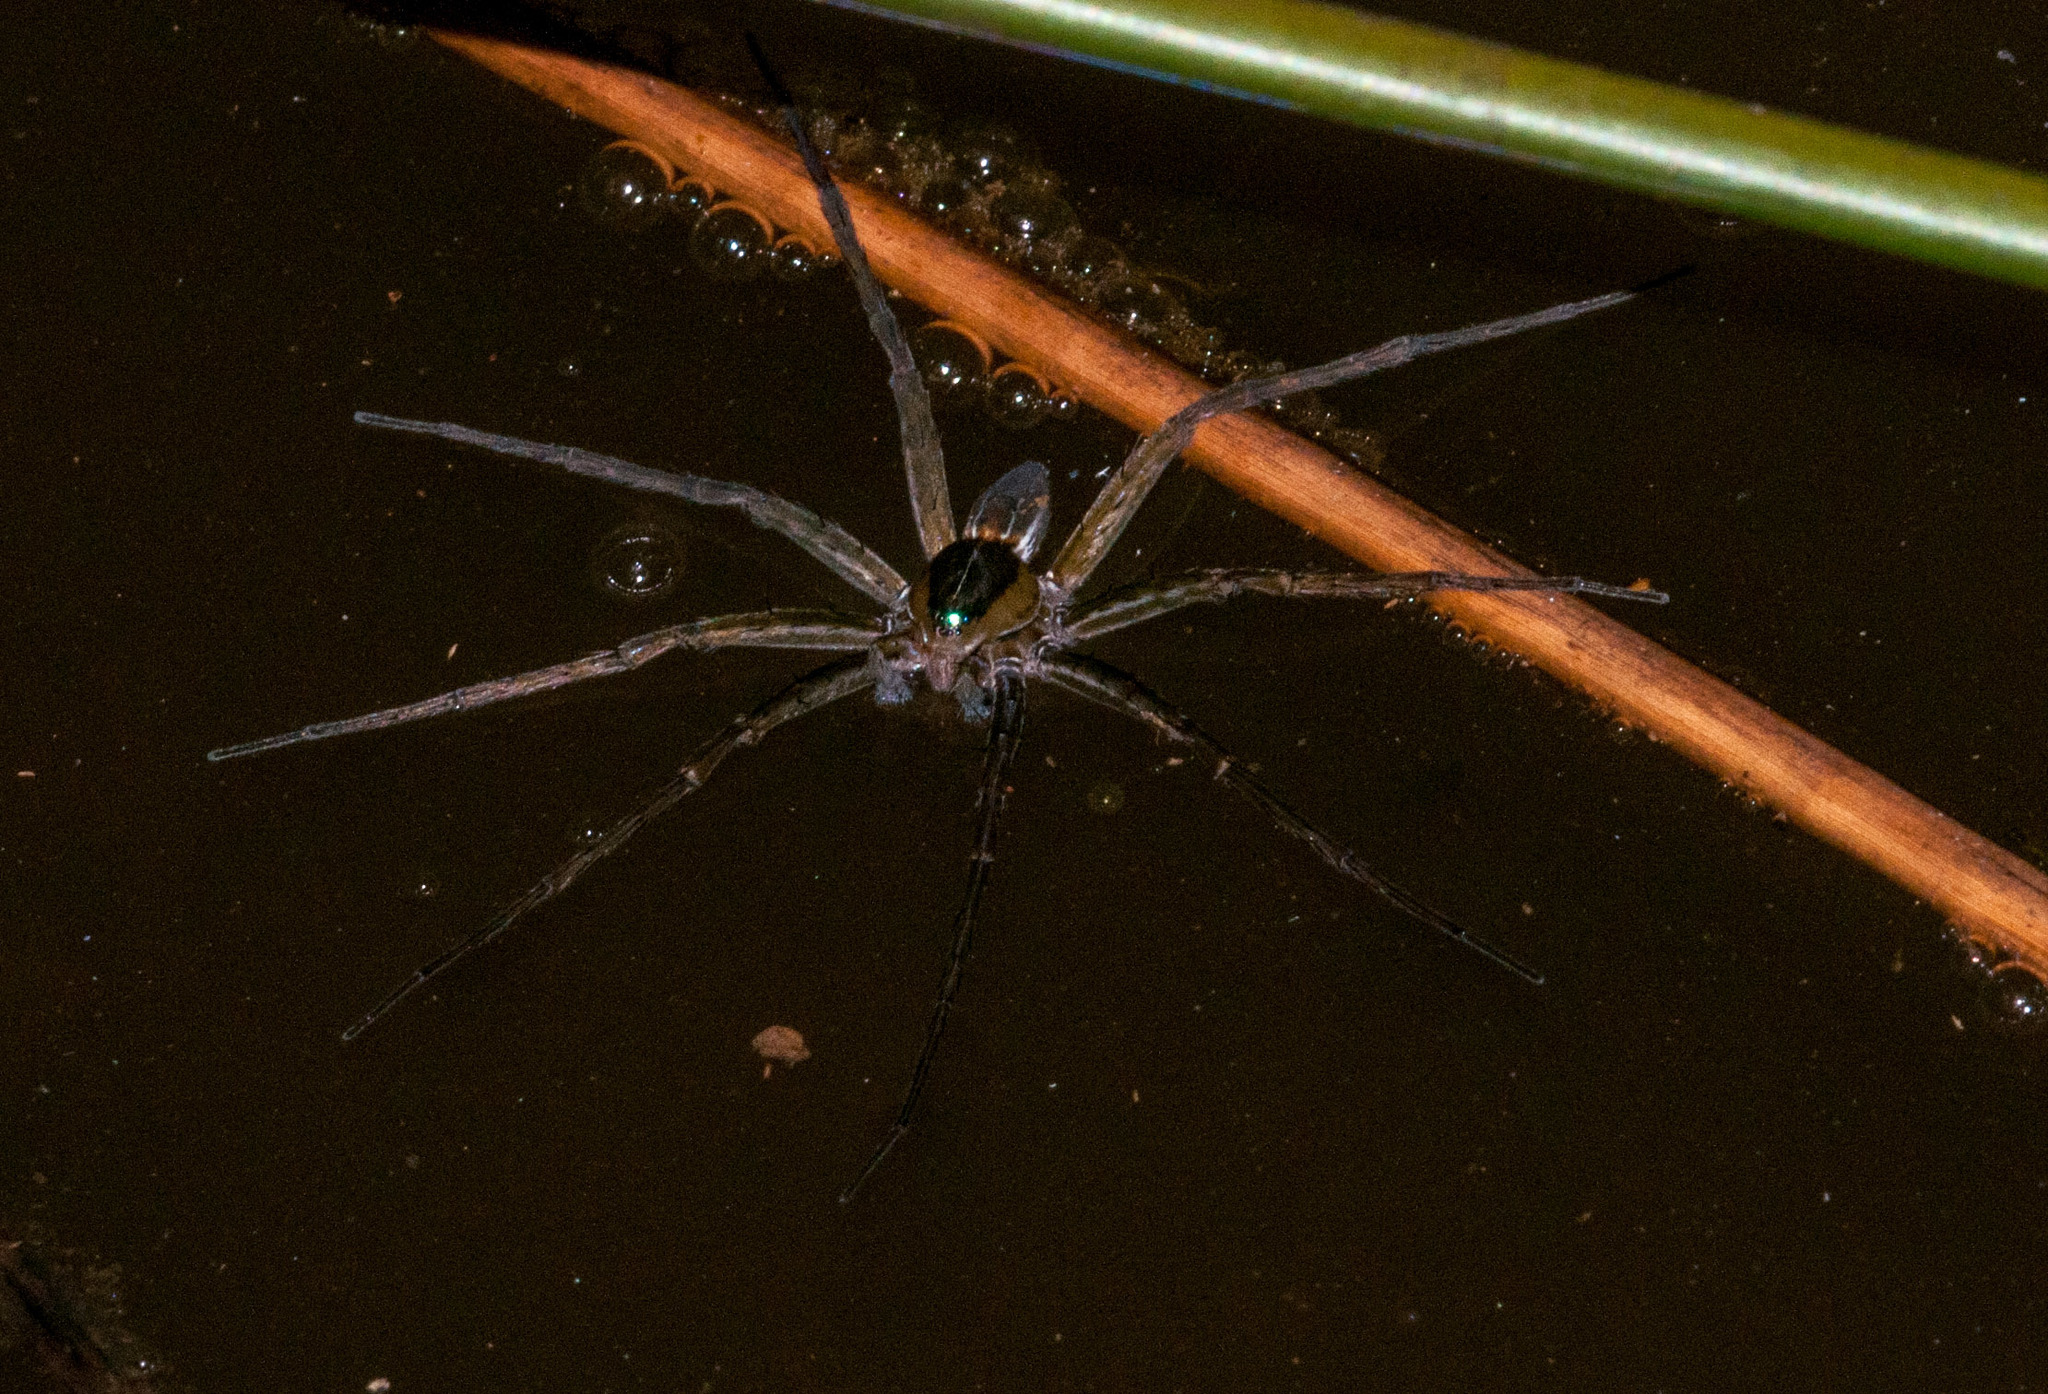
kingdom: Animalia
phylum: Arthropoda
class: Arachnida
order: Araneae
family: Pisauridae
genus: Dolomedes
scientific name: Dolomedes facetus
